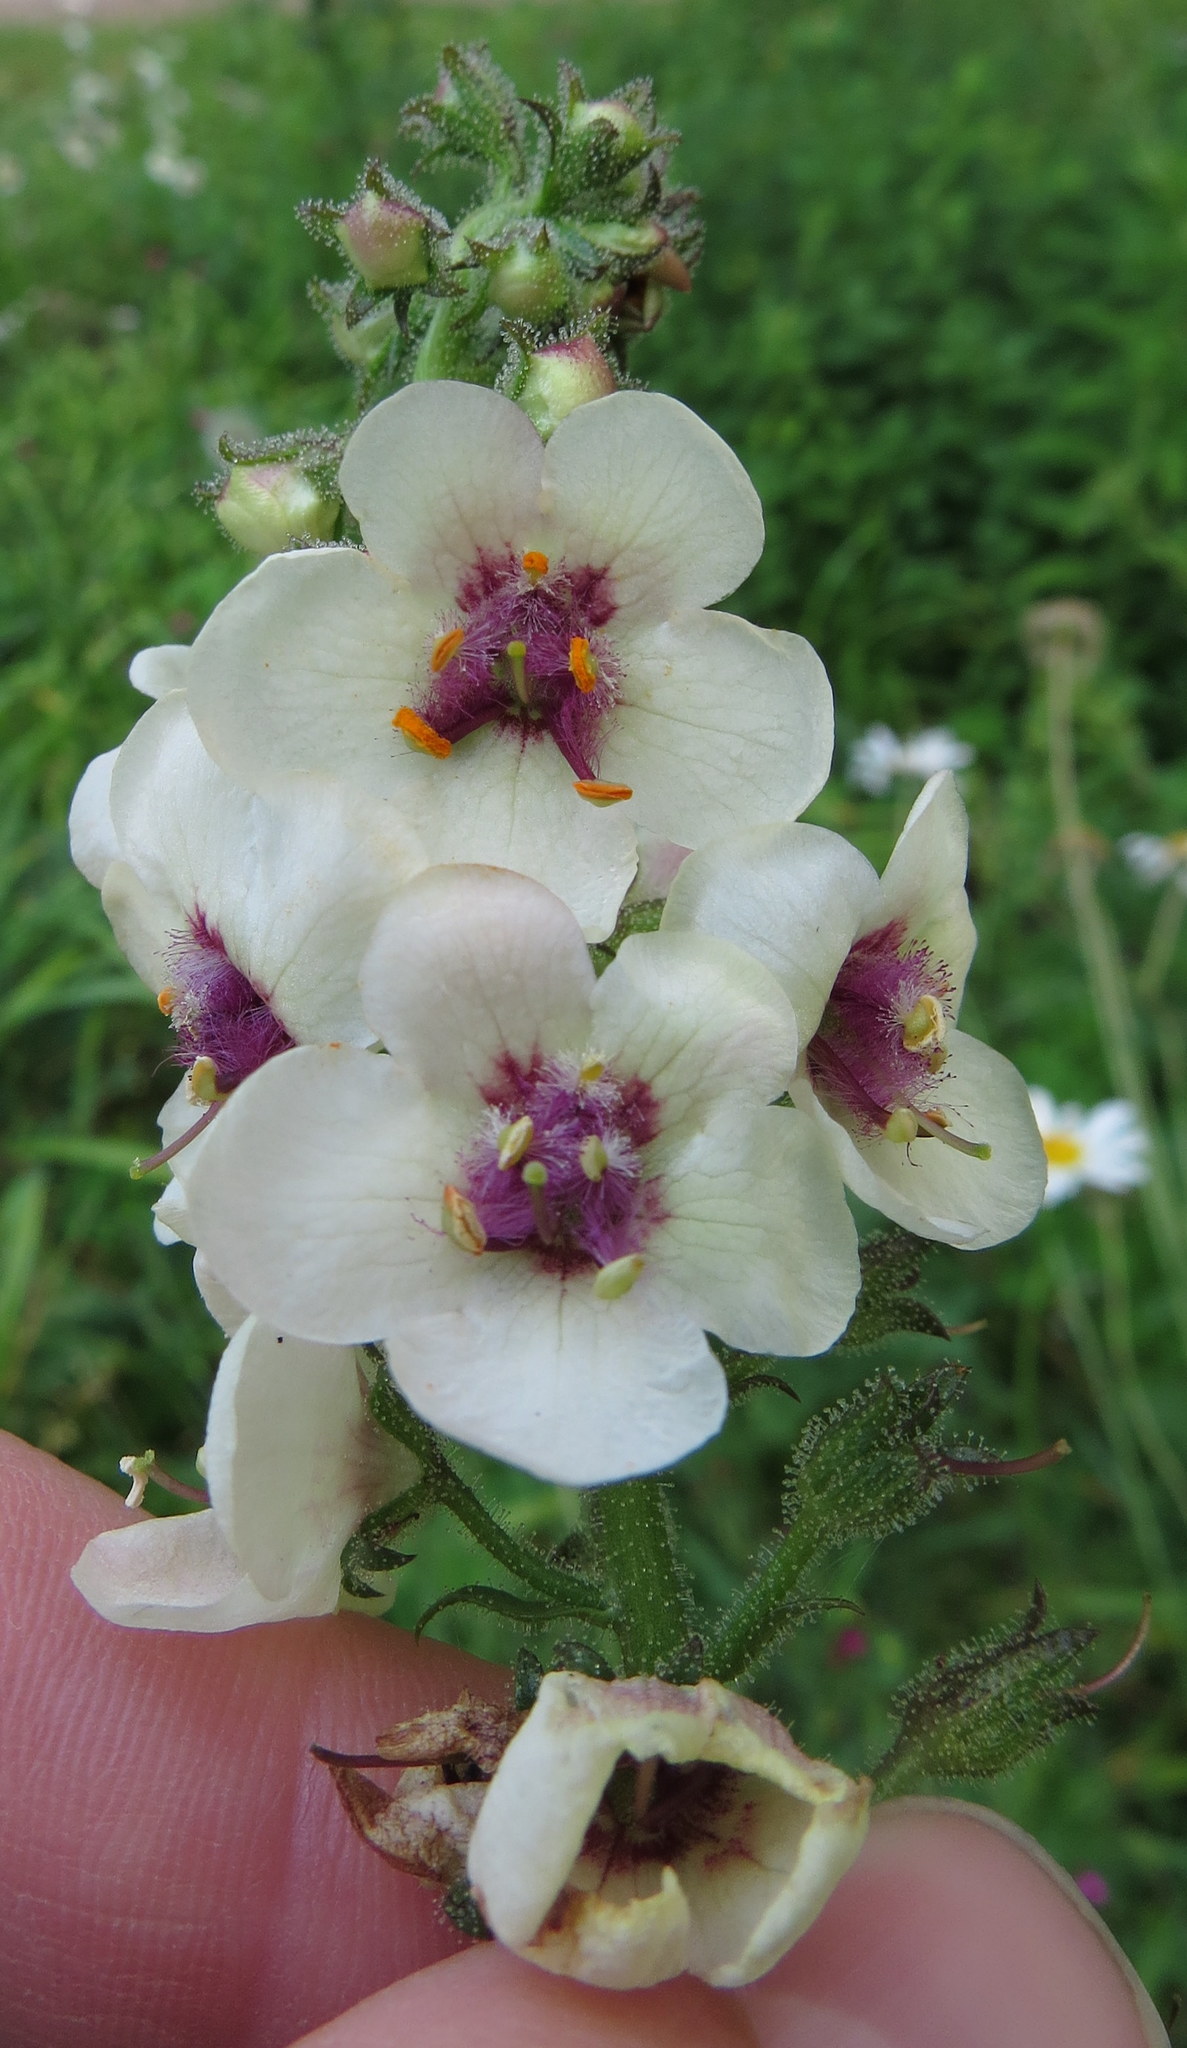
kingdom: Plantae
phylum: Tracheophyta
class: Magnoliopsida
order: Lamiales
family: Scrophulariaceae
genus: Verbascum
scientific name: Verbascum blattaria
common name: Moth mullein
